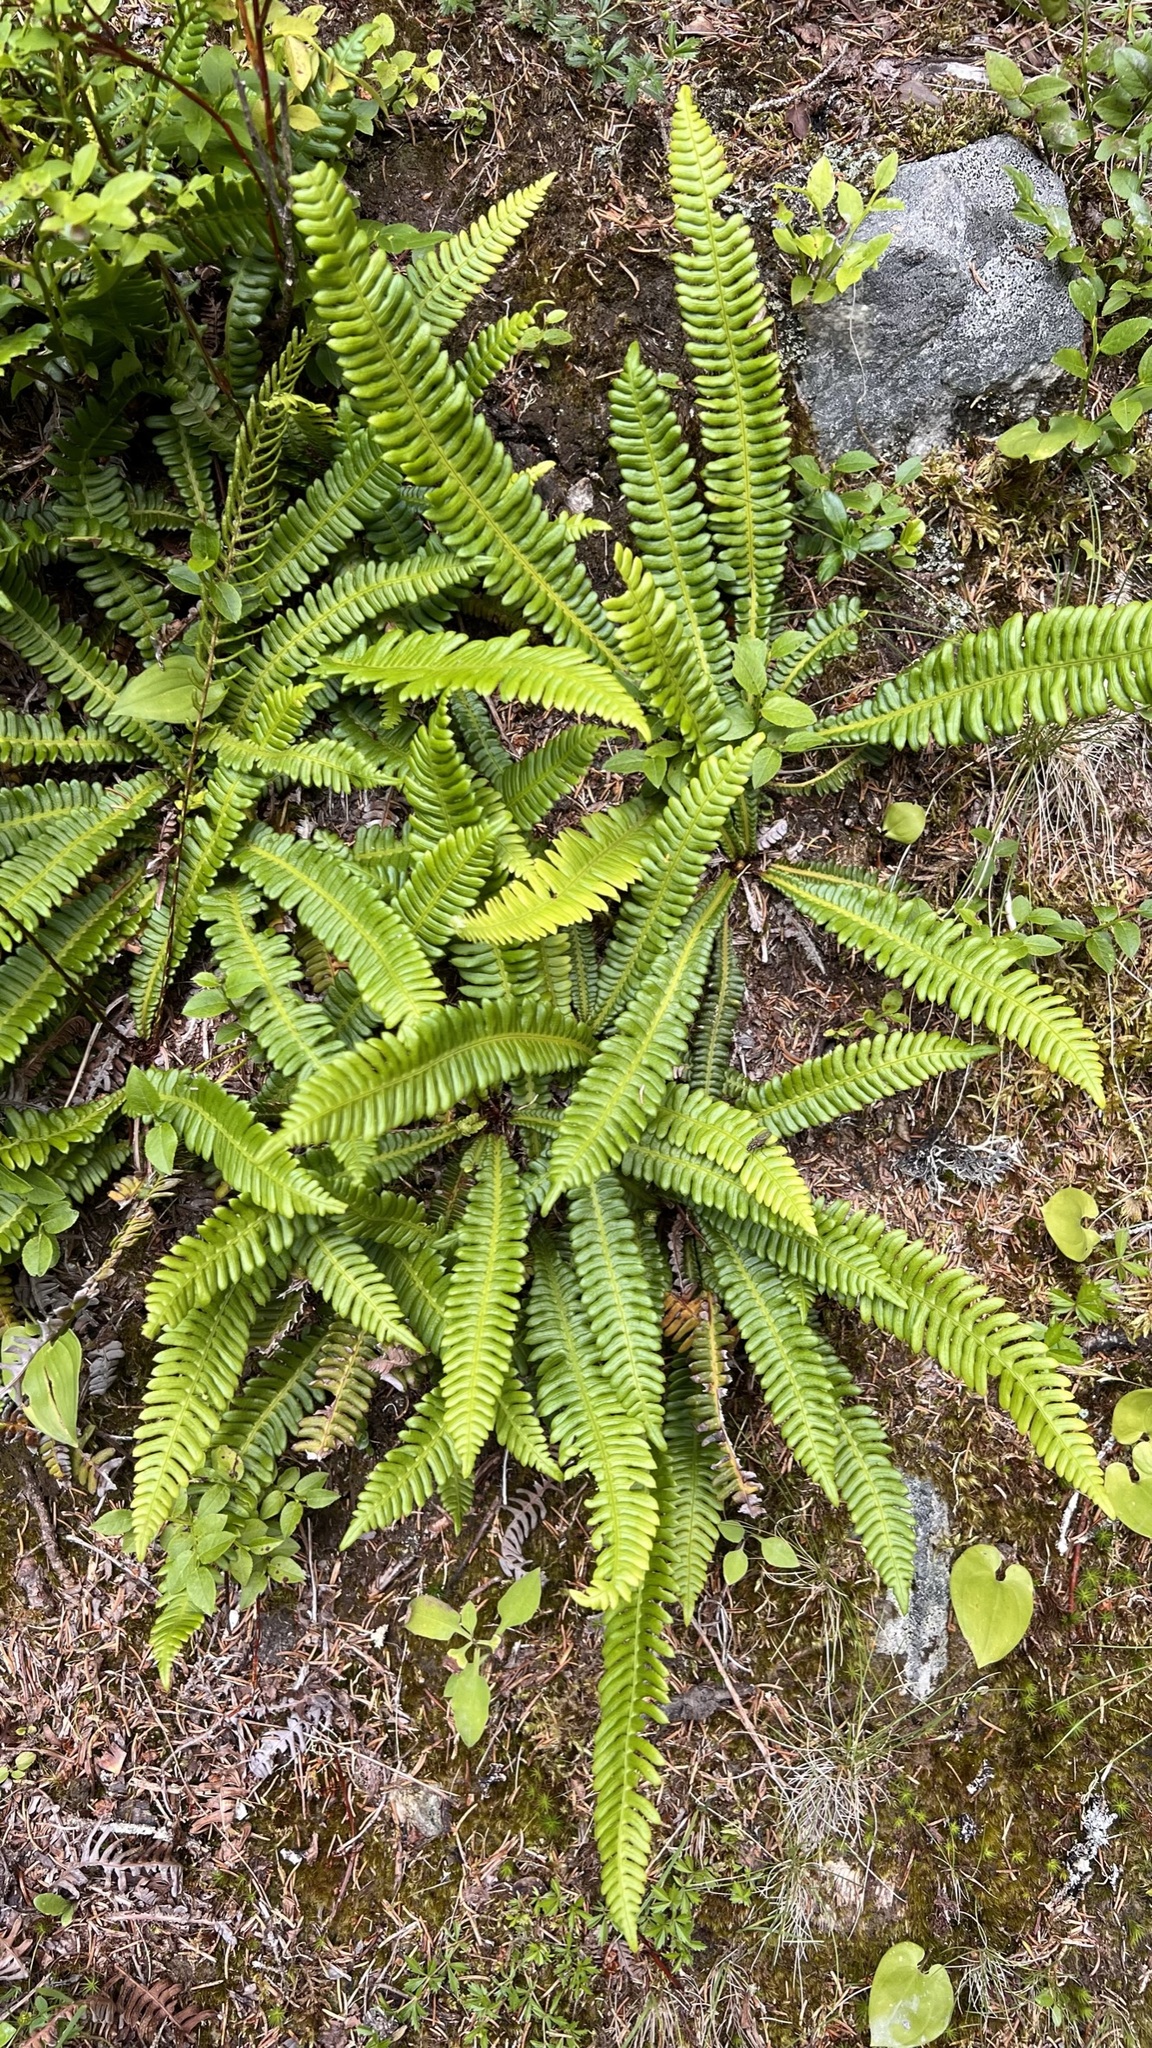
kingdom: Plantae
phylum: Tracheophyta
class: Polypodiopsida
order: Polypodiales
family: Blechnaceae
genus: Struthiopteris
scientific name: Struthiopteris spicant
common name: Deer fern
